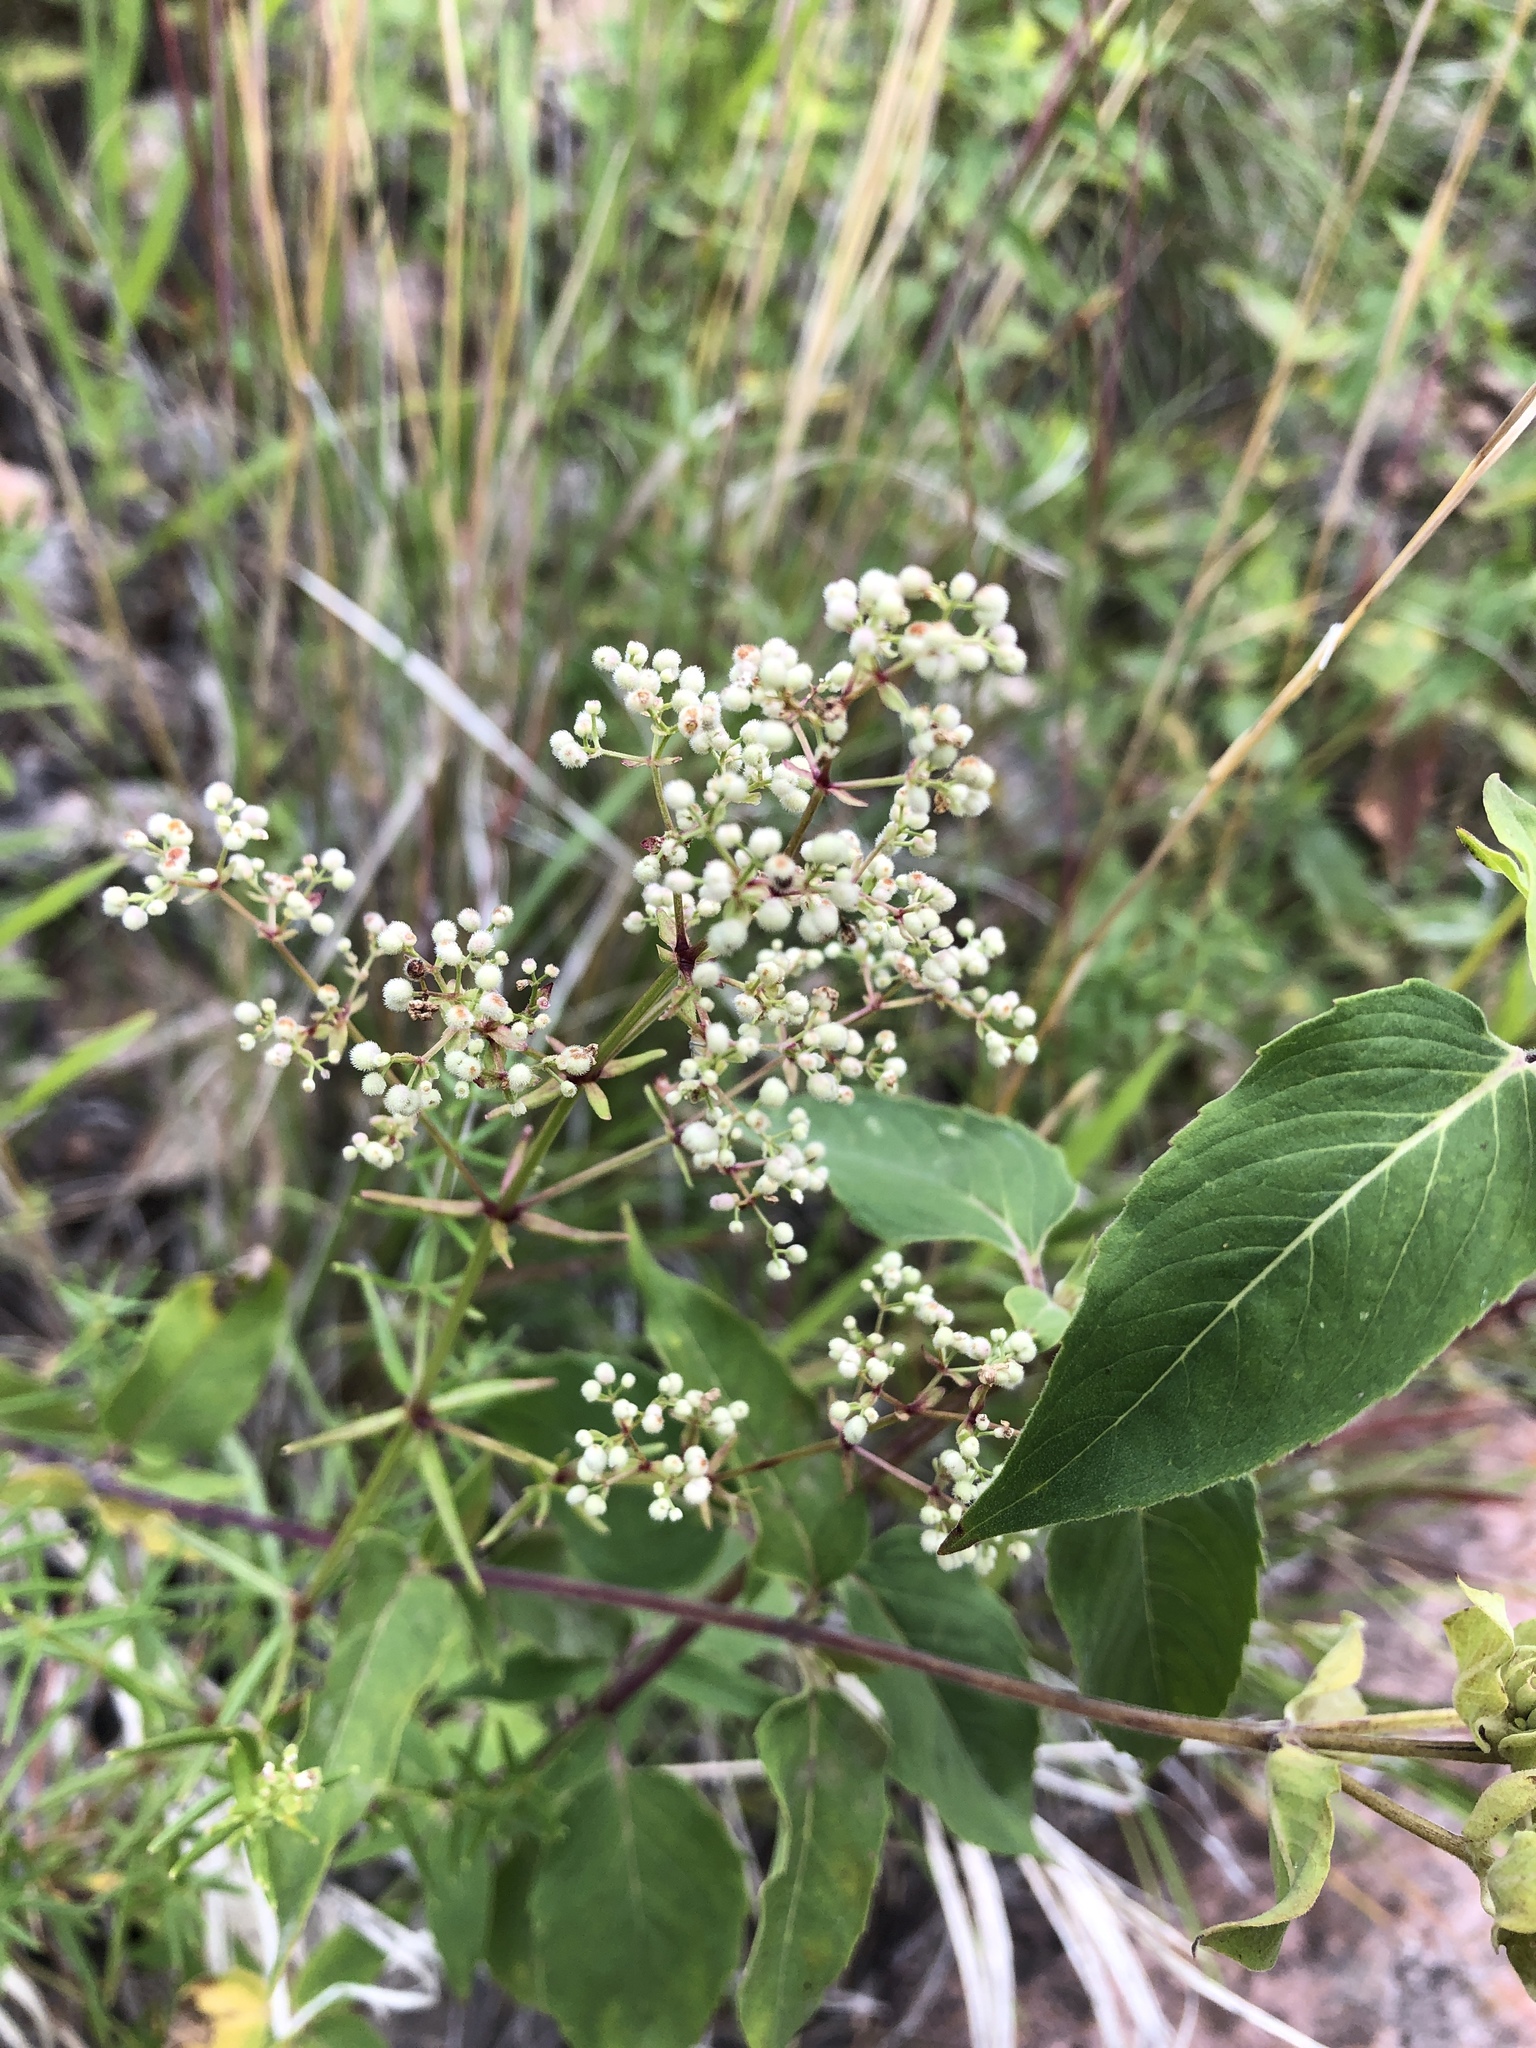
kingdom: Plantae
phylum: Tracheophyta
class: Magnoliopsida
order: Gentianales
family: Rubiaceae
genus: Galium
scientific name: Galium boreale
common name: Northern bedstraw
